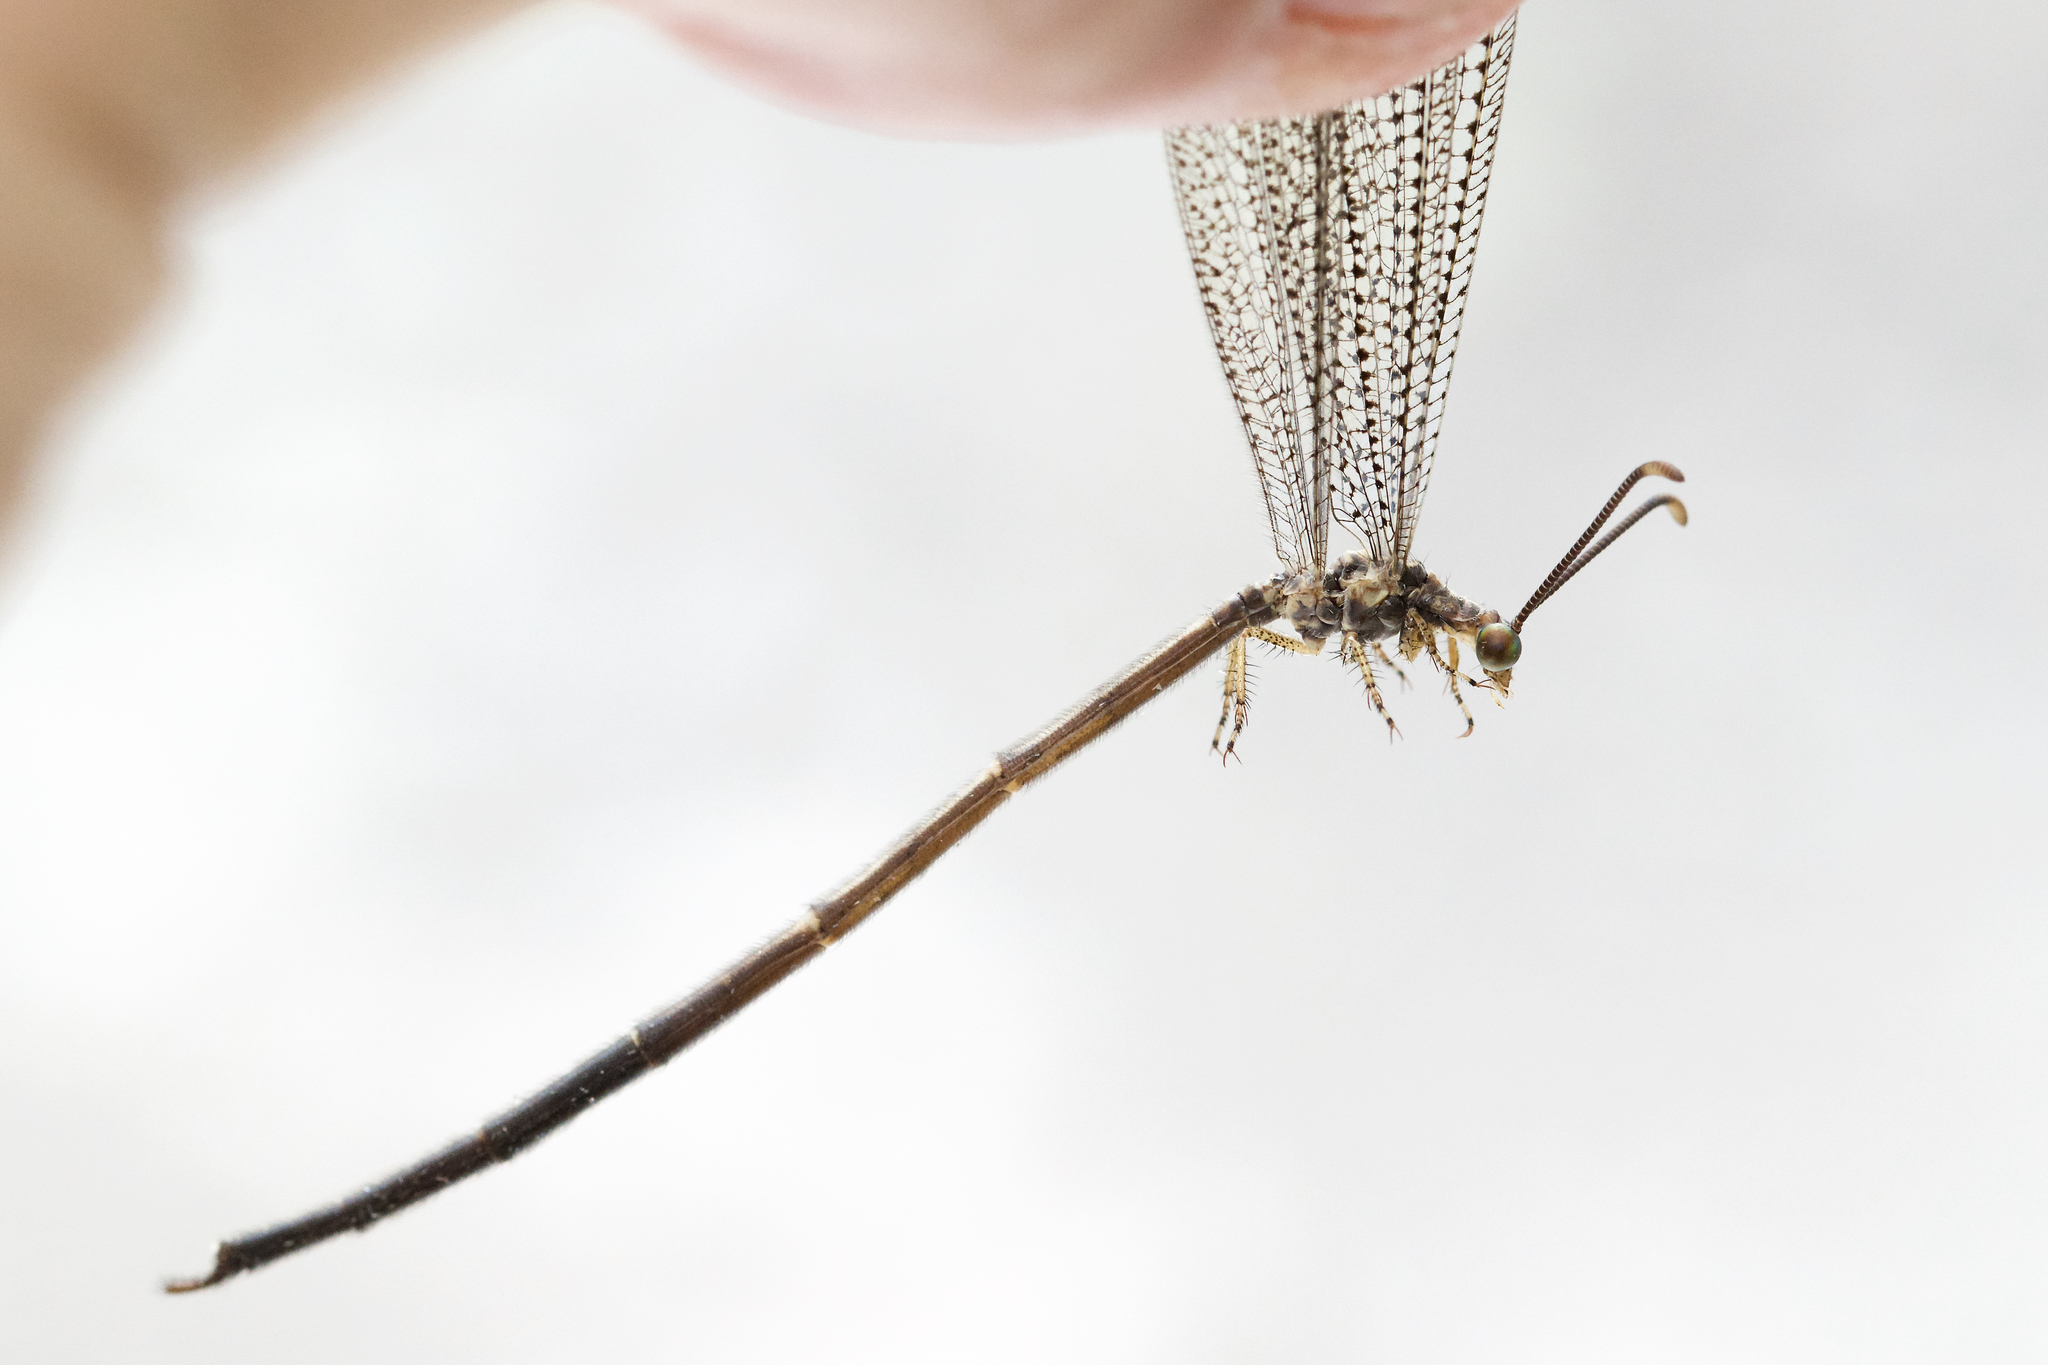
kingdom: Animalia
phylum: Arthropoda
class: Insecta
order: Neuroptera
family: Myrmeleontidae
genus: Brachynemurus
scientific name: Brachynemurus abdominalis
